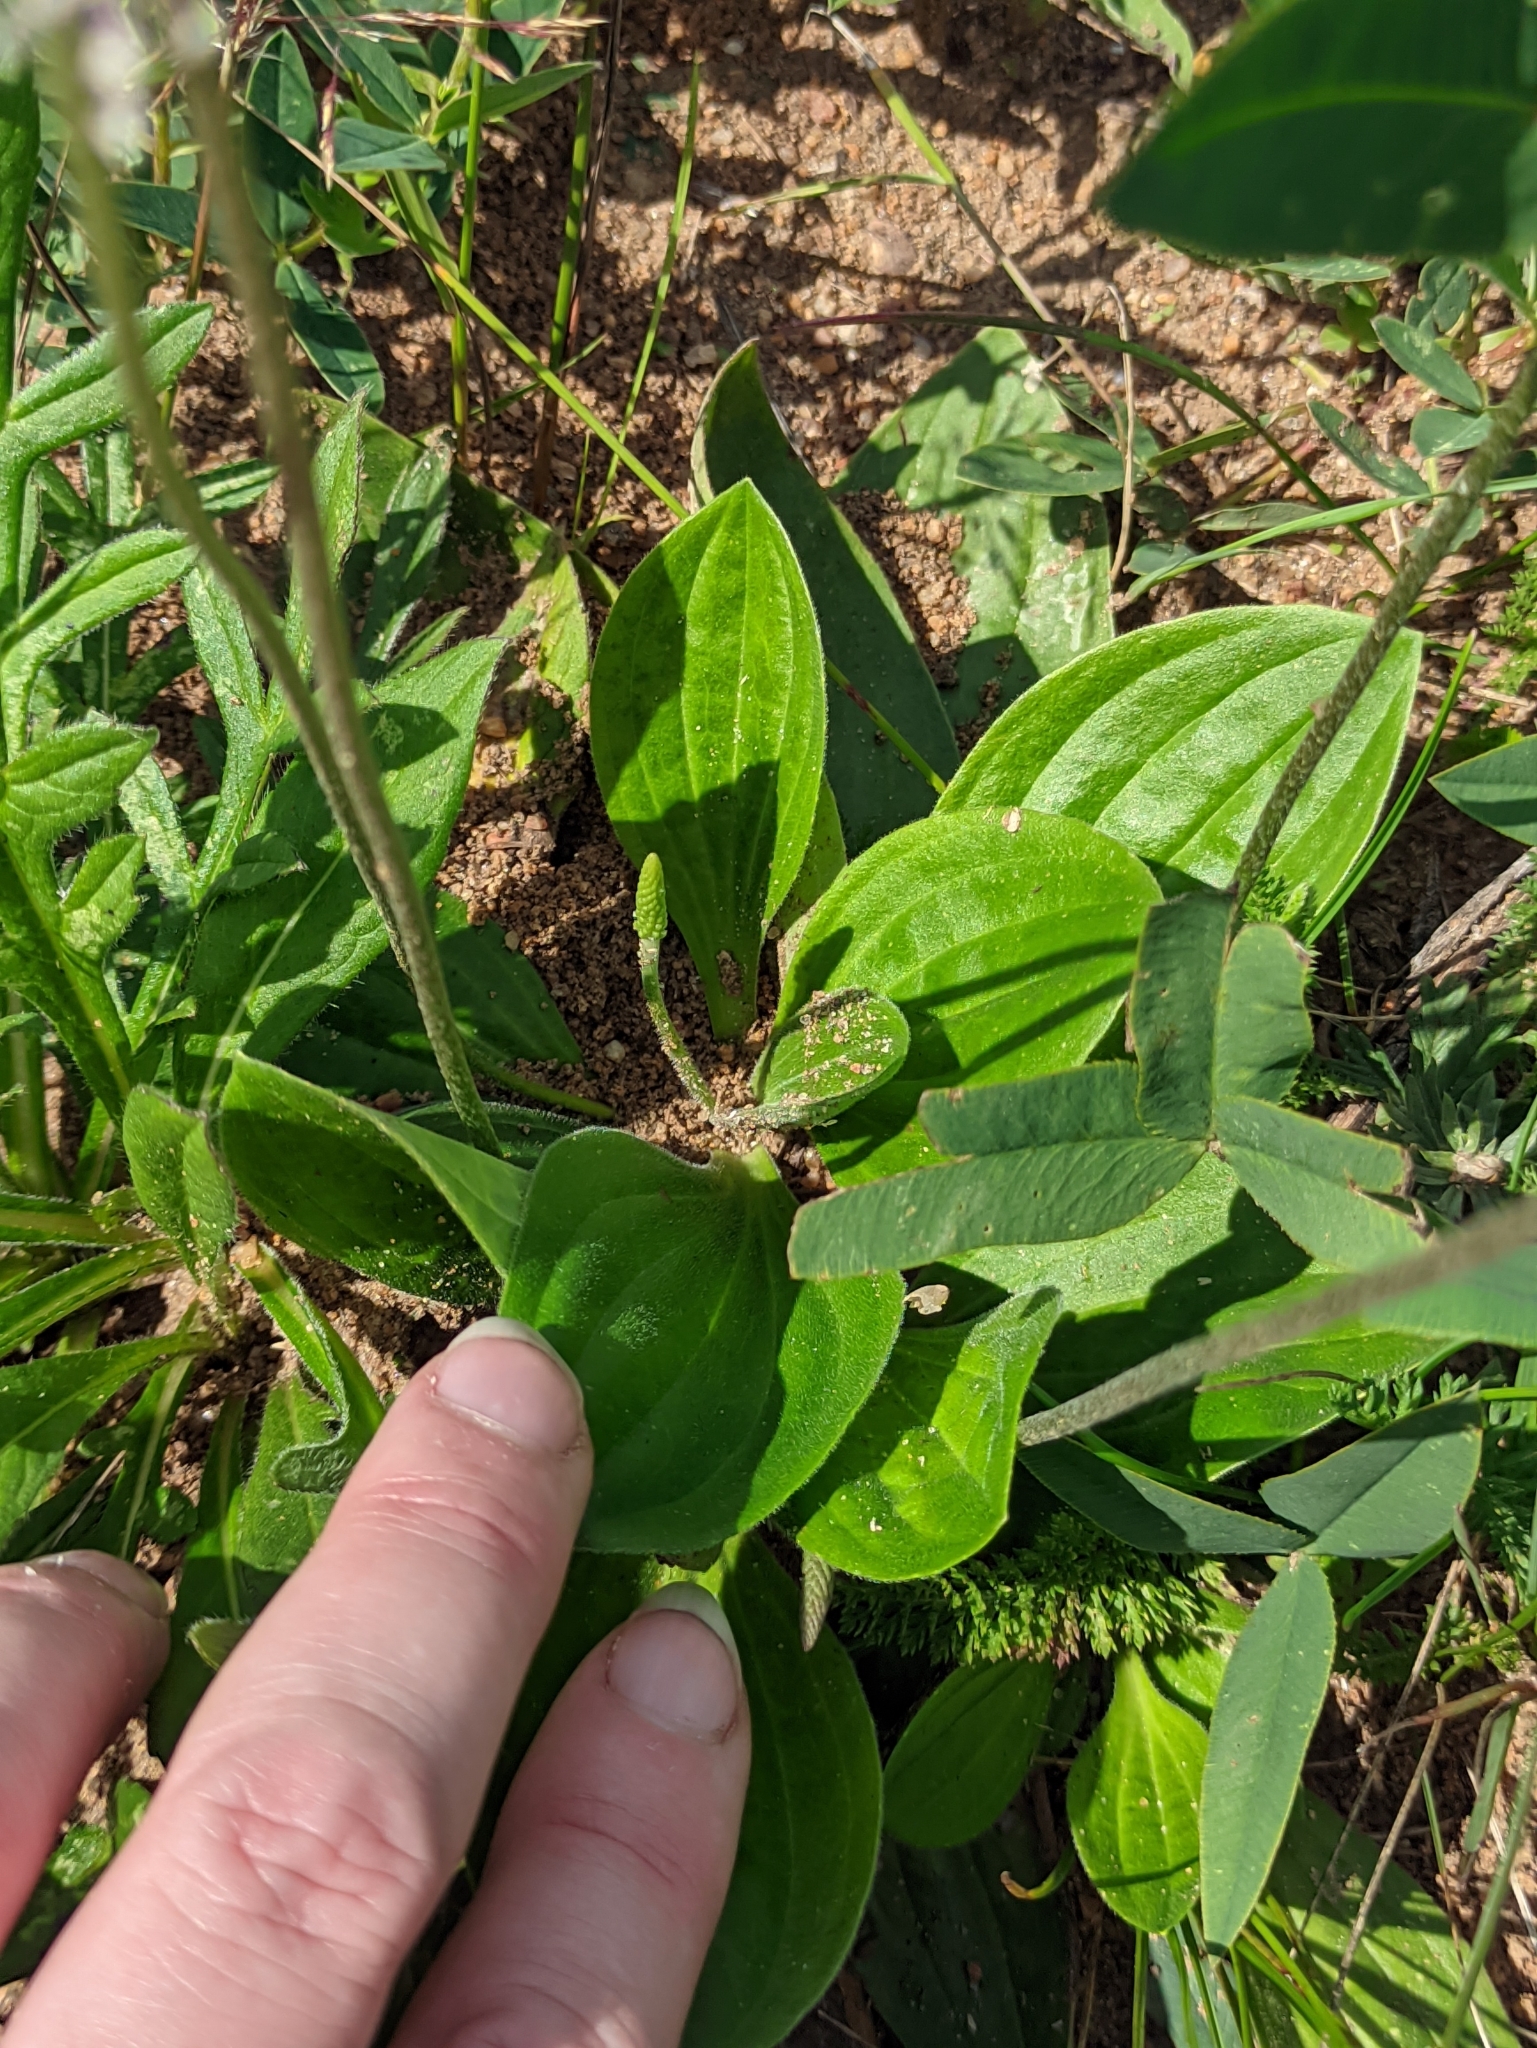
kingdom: Plantae
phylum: Tracheophyta
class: Magnoliopsida
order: Lamiales
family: Plantaginaceae
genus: Plantago
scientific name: Plantago media
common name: Hoary plantain
